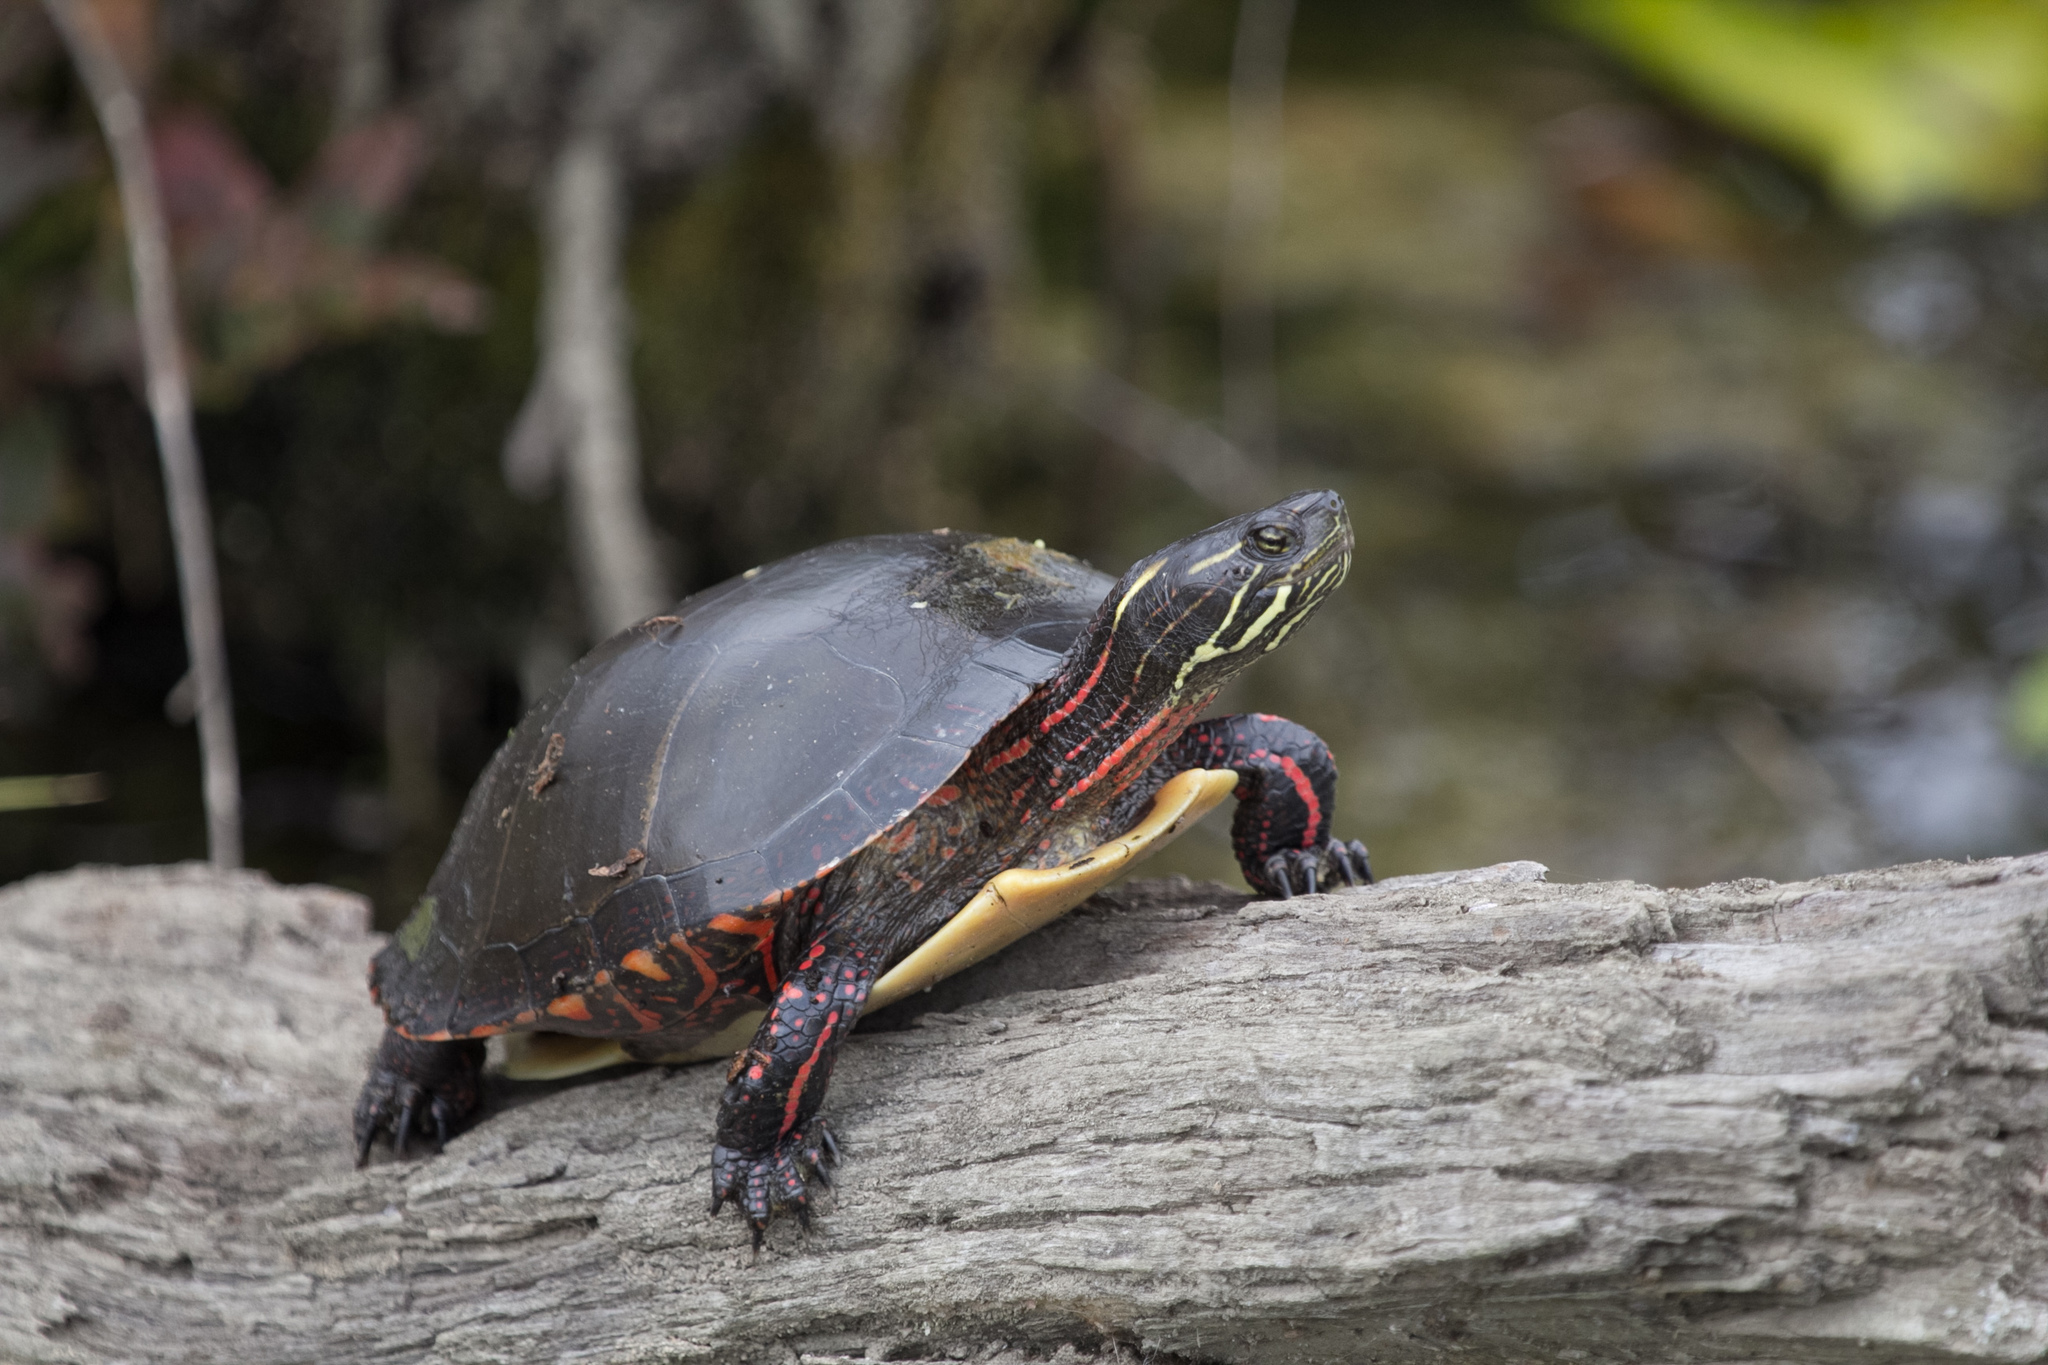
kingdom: Animalia
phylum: Chordata
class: Testudines
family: Emydidae
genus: Chrysemys
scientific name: Chrysemys picta
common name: Painted turtle
